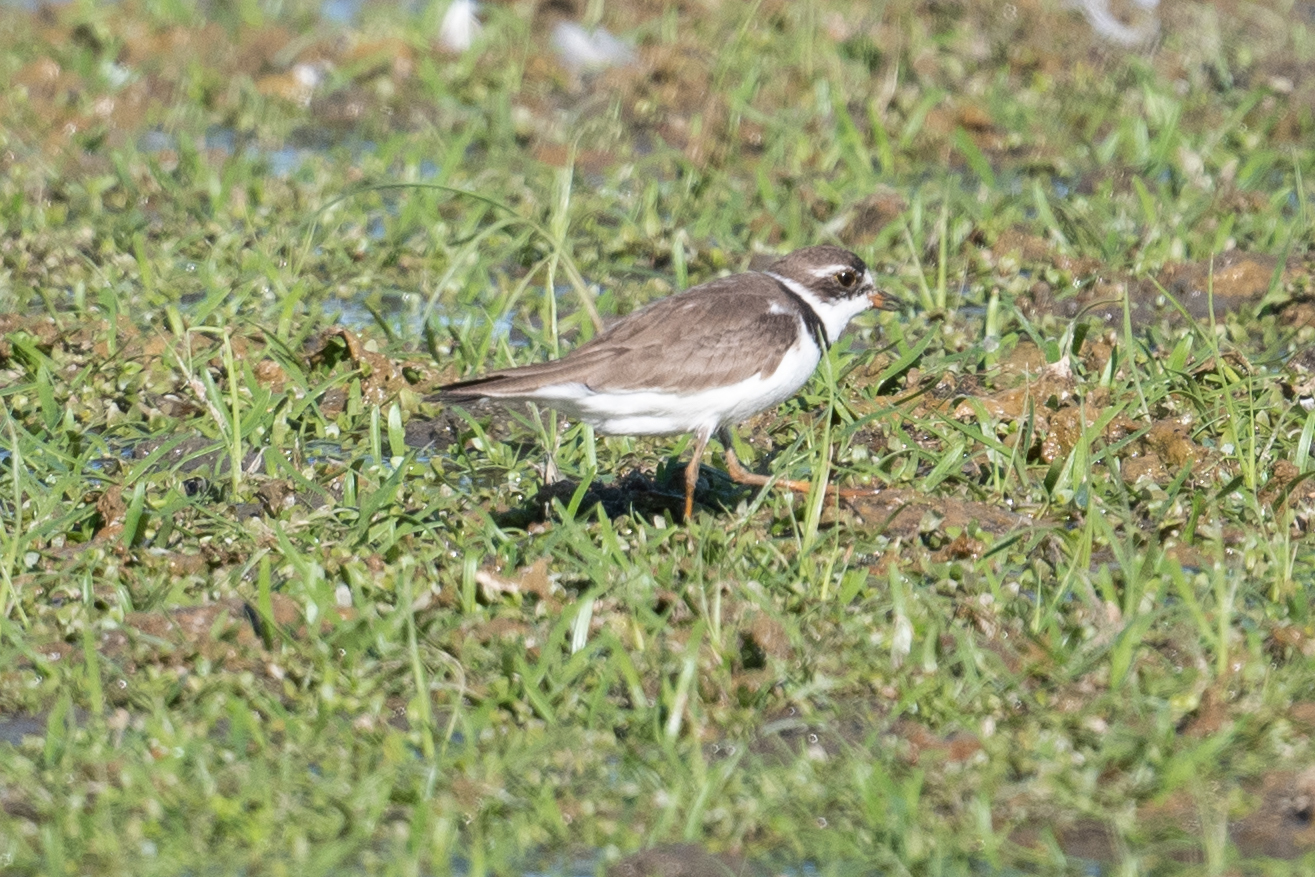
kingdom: Animalia
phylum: Chordata
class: Aves
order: Charadriiformes
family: Charadriidae
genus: Charadrius
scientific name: Charadrius semipalmatus
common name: Semipalmated plover
